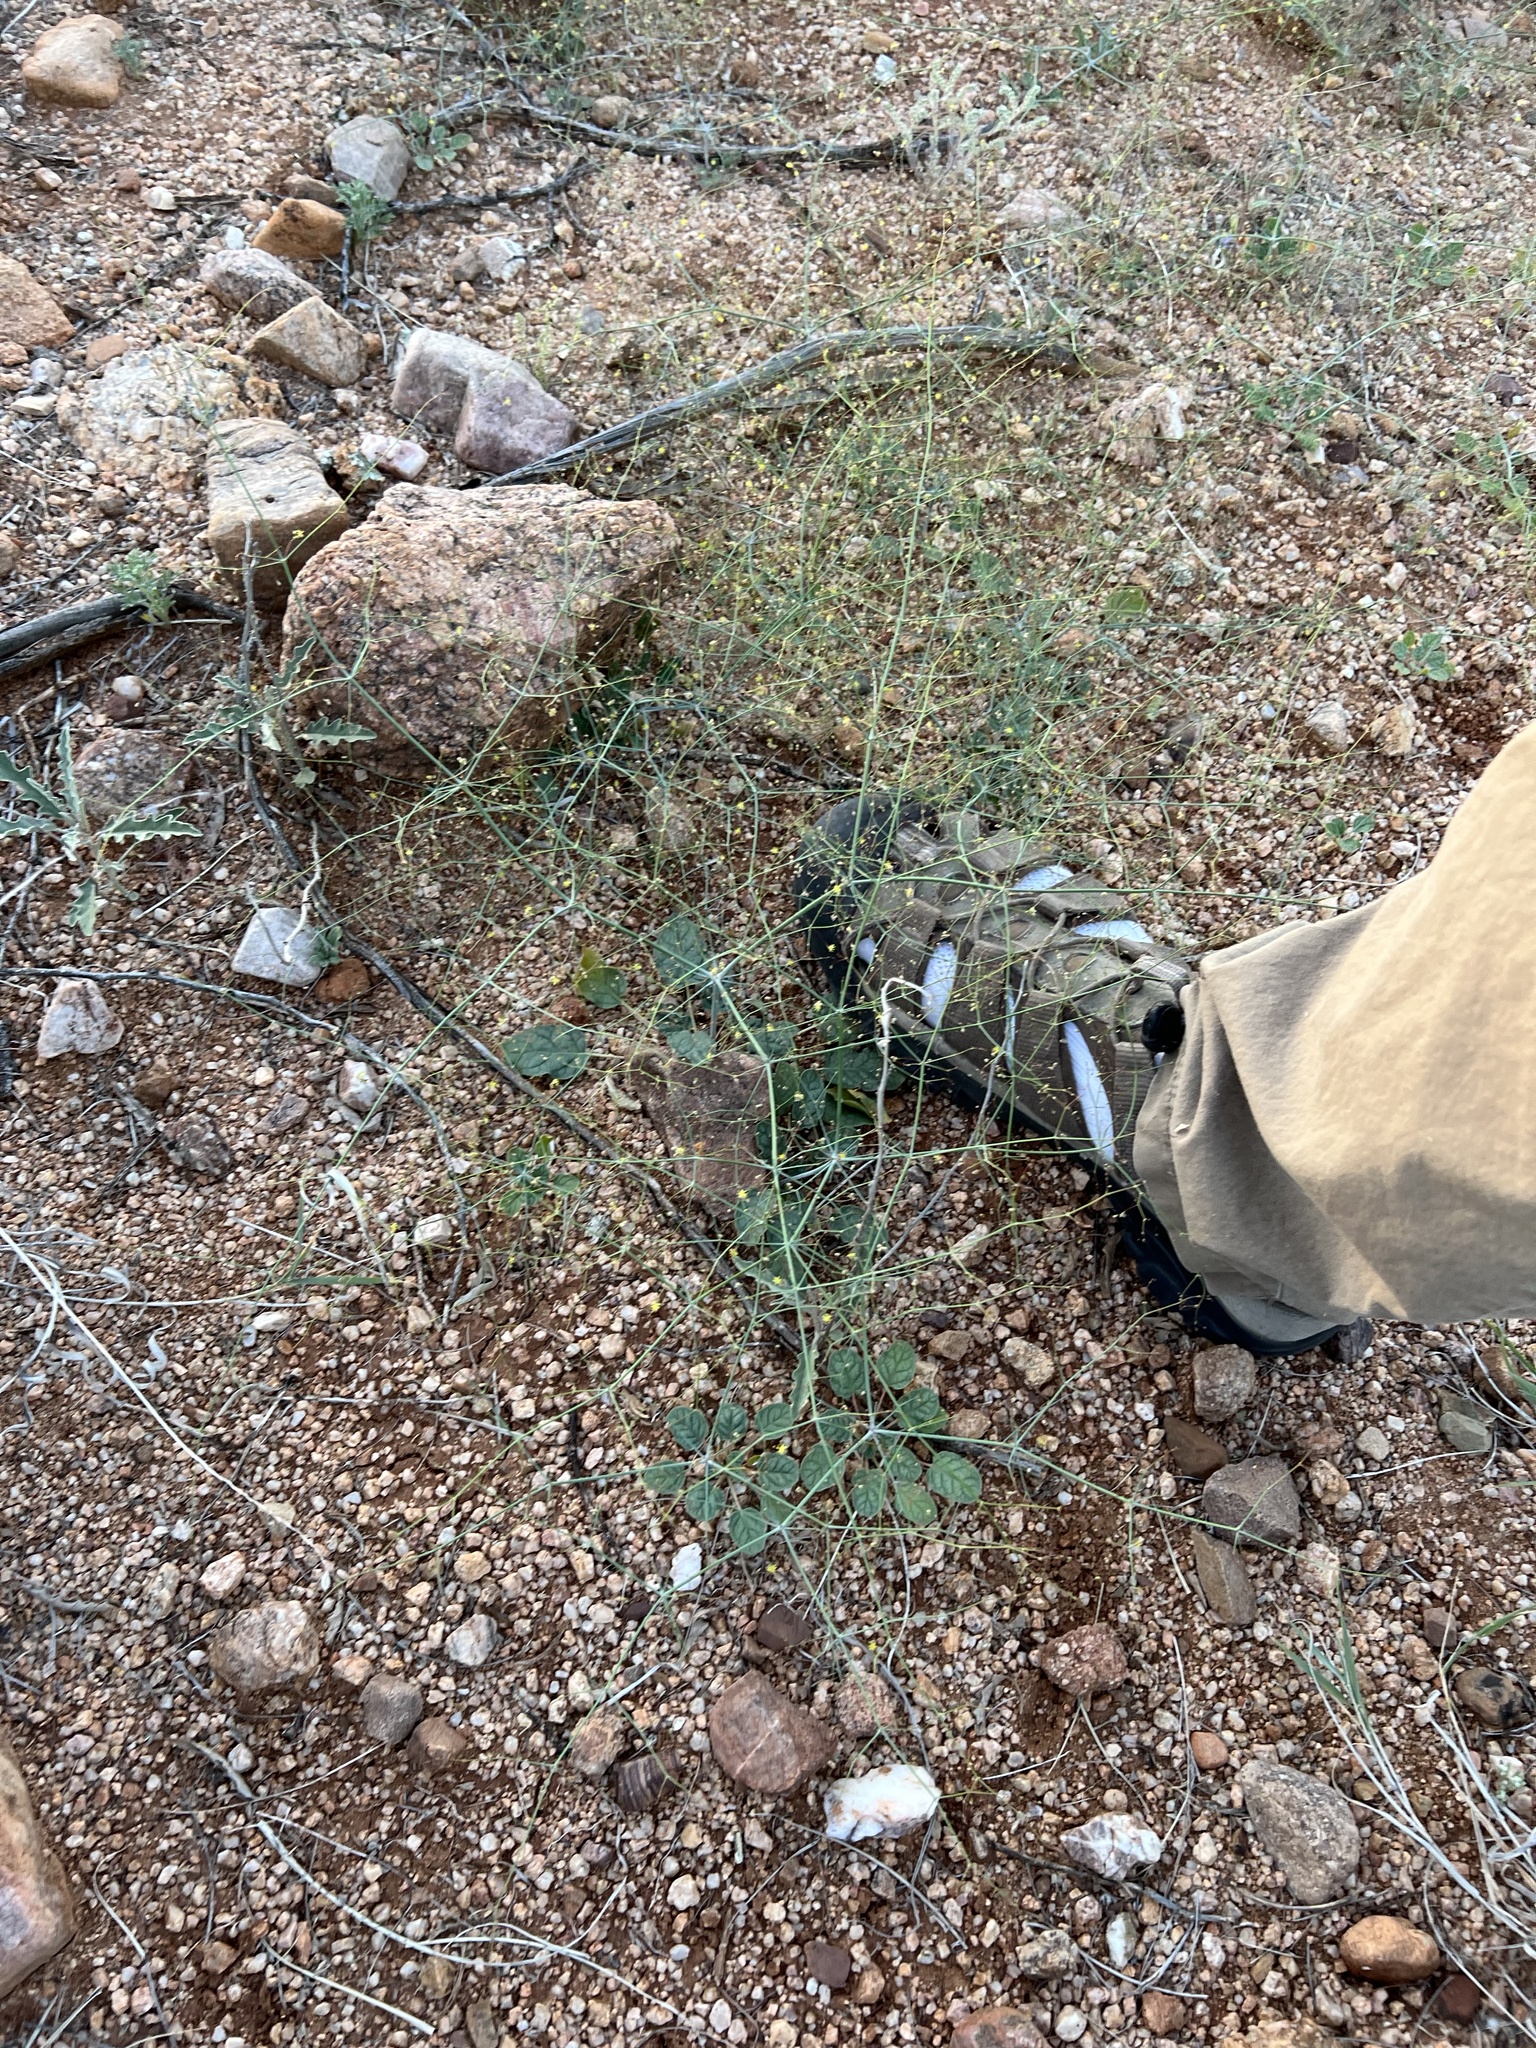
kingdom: Plantae
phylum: Tracheophyta
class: Magnoliopsida
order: Caryophyllales
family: Polygonaceae
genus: Eriogonum
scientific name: Eriogonum trichopes
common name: Little desert trumpet
